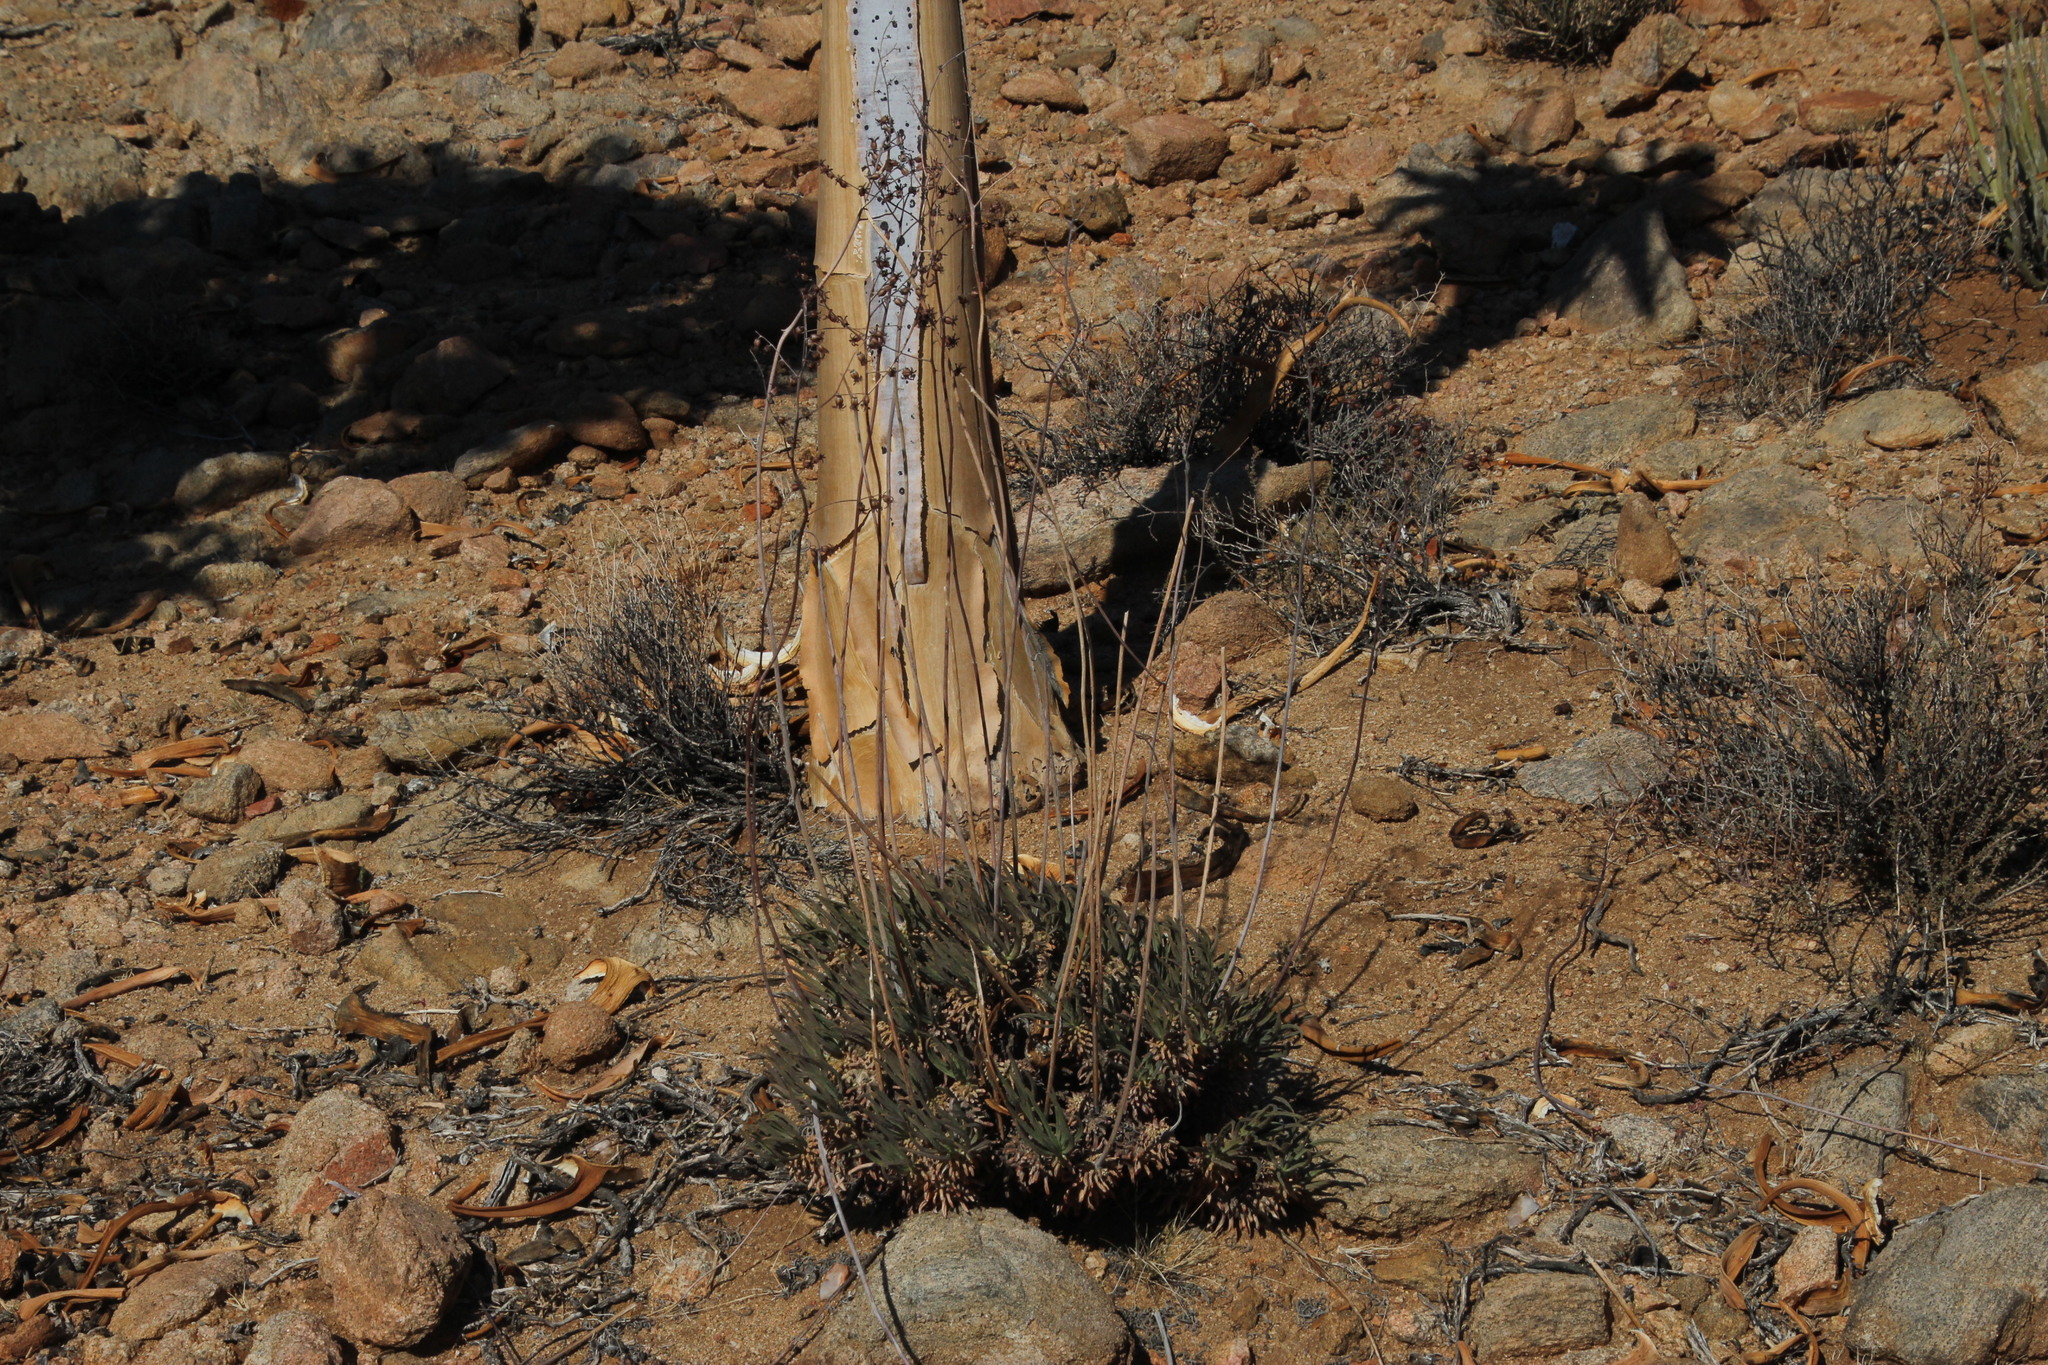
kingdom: Plantae
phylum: Tracheophyta
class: Magnoliopsida
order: Saxifragales
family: Crassulaceae
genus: Tylecodon
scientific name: Tylecodon wallichii
